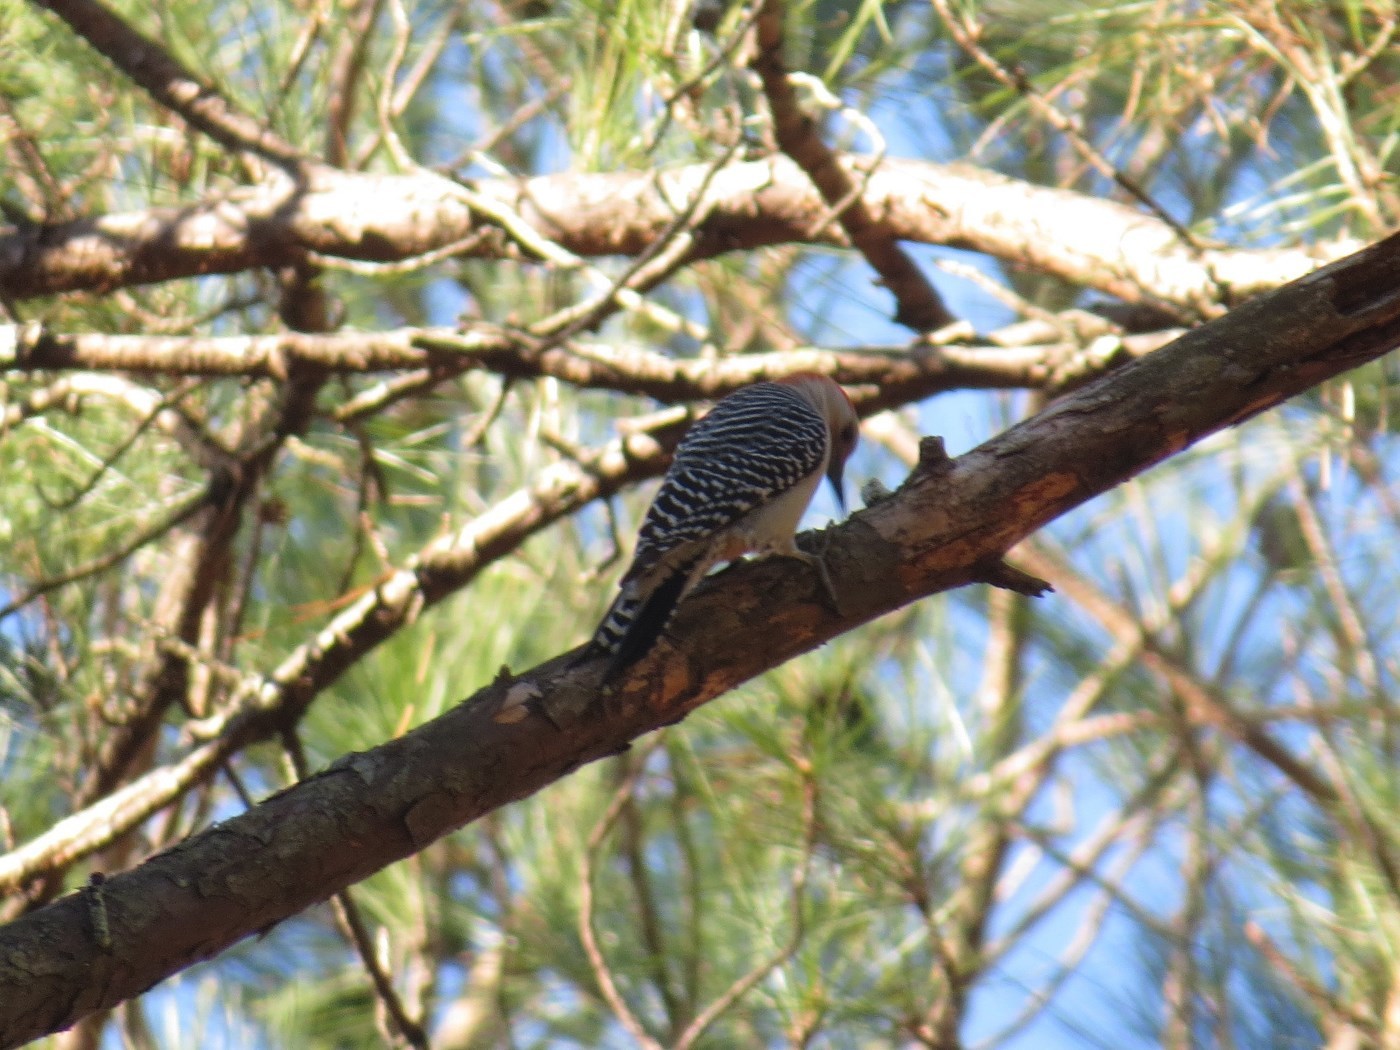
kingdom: Animalia
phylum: Chordata
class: Aves
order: Piciformes
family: Picidae
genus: Melanerpes
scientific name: Melanerpes carolinus
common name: Red-bellied woodpecker
